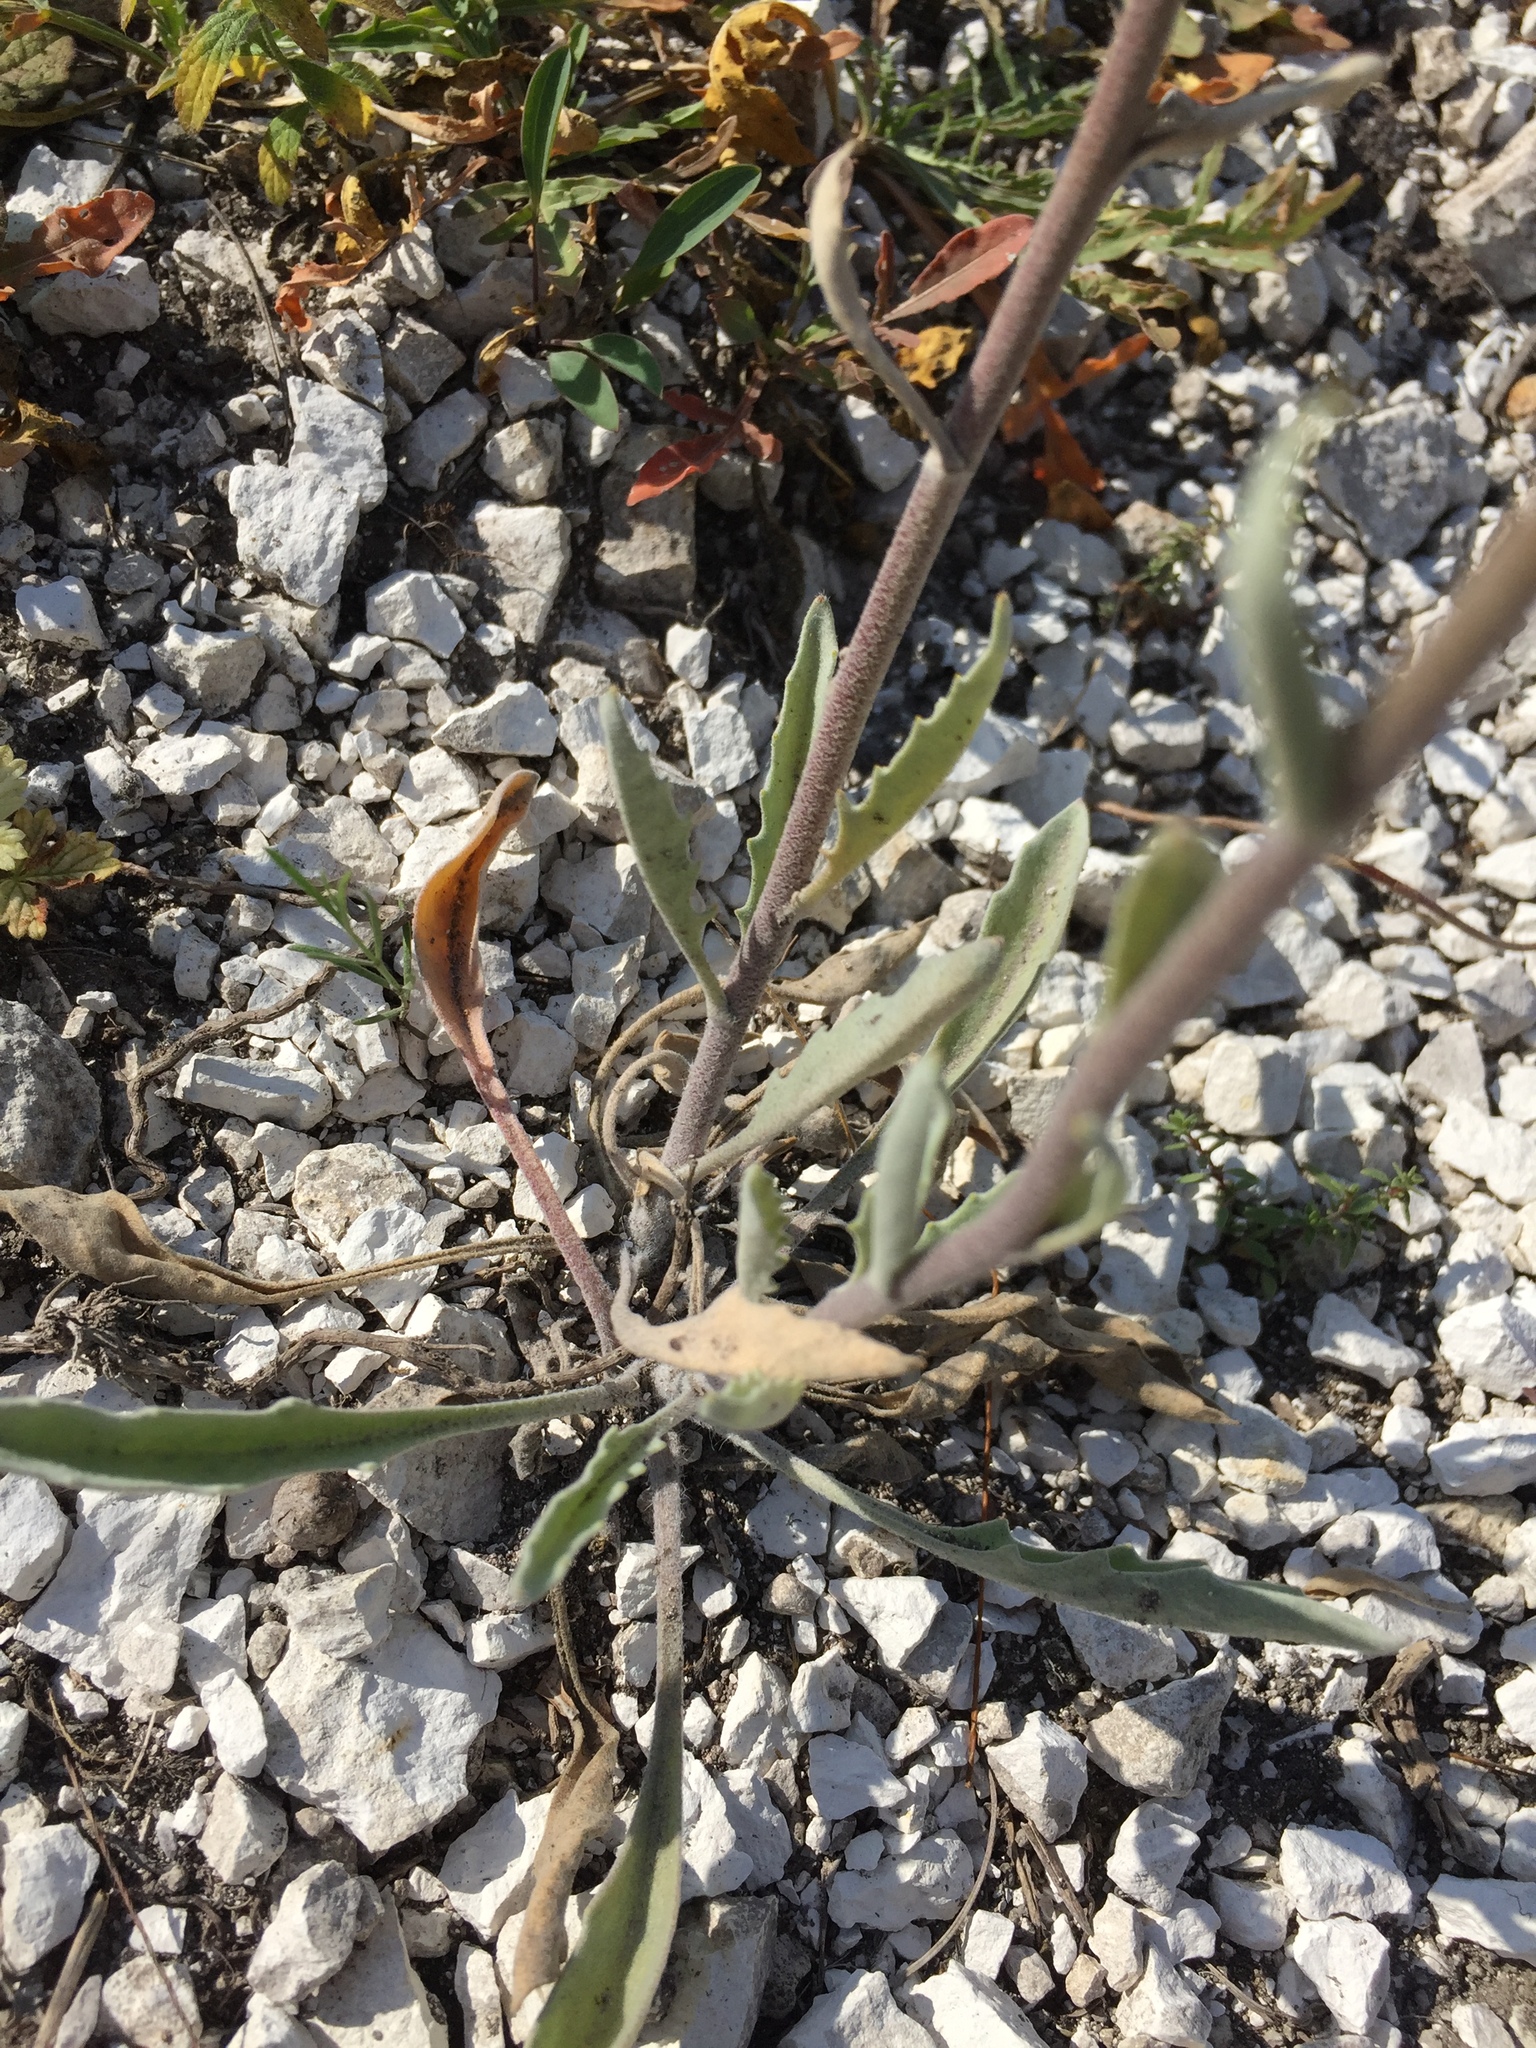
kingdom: Plantae
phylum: Tracheophyta
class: Magnoliopsida
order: Brassicales
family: Brassicaceae
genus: Matthiola
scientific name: Matthiola fragrans
